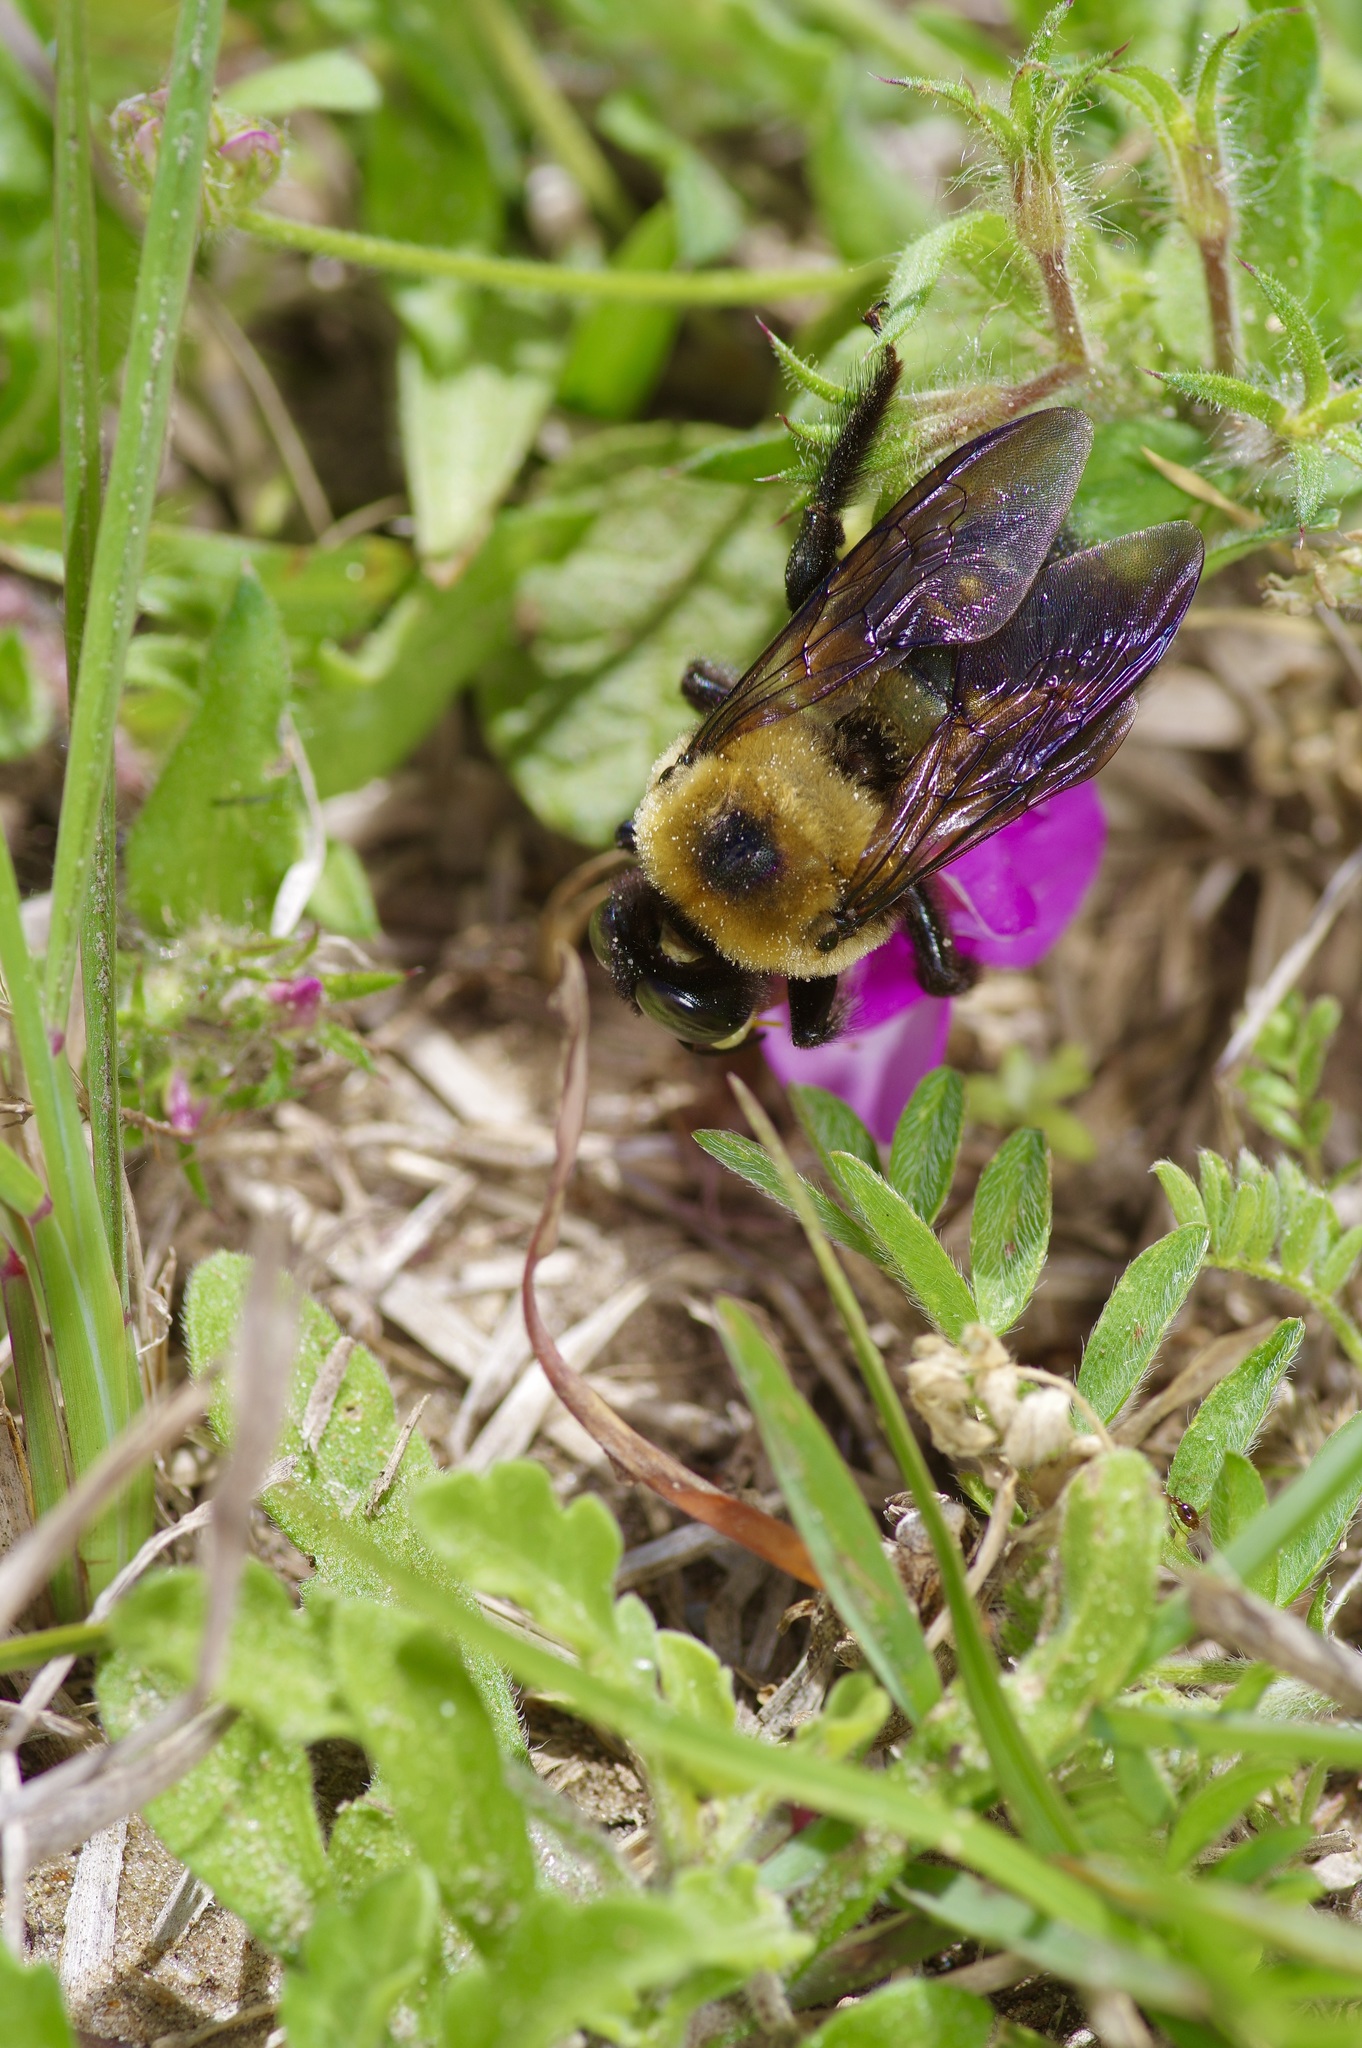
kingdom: Animalia
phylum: Arthropoda
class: Insecta
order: Hymenoptera
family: Apidae
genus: Xylocopa
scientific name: Xylocopa virginica
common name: Carpenter bee
